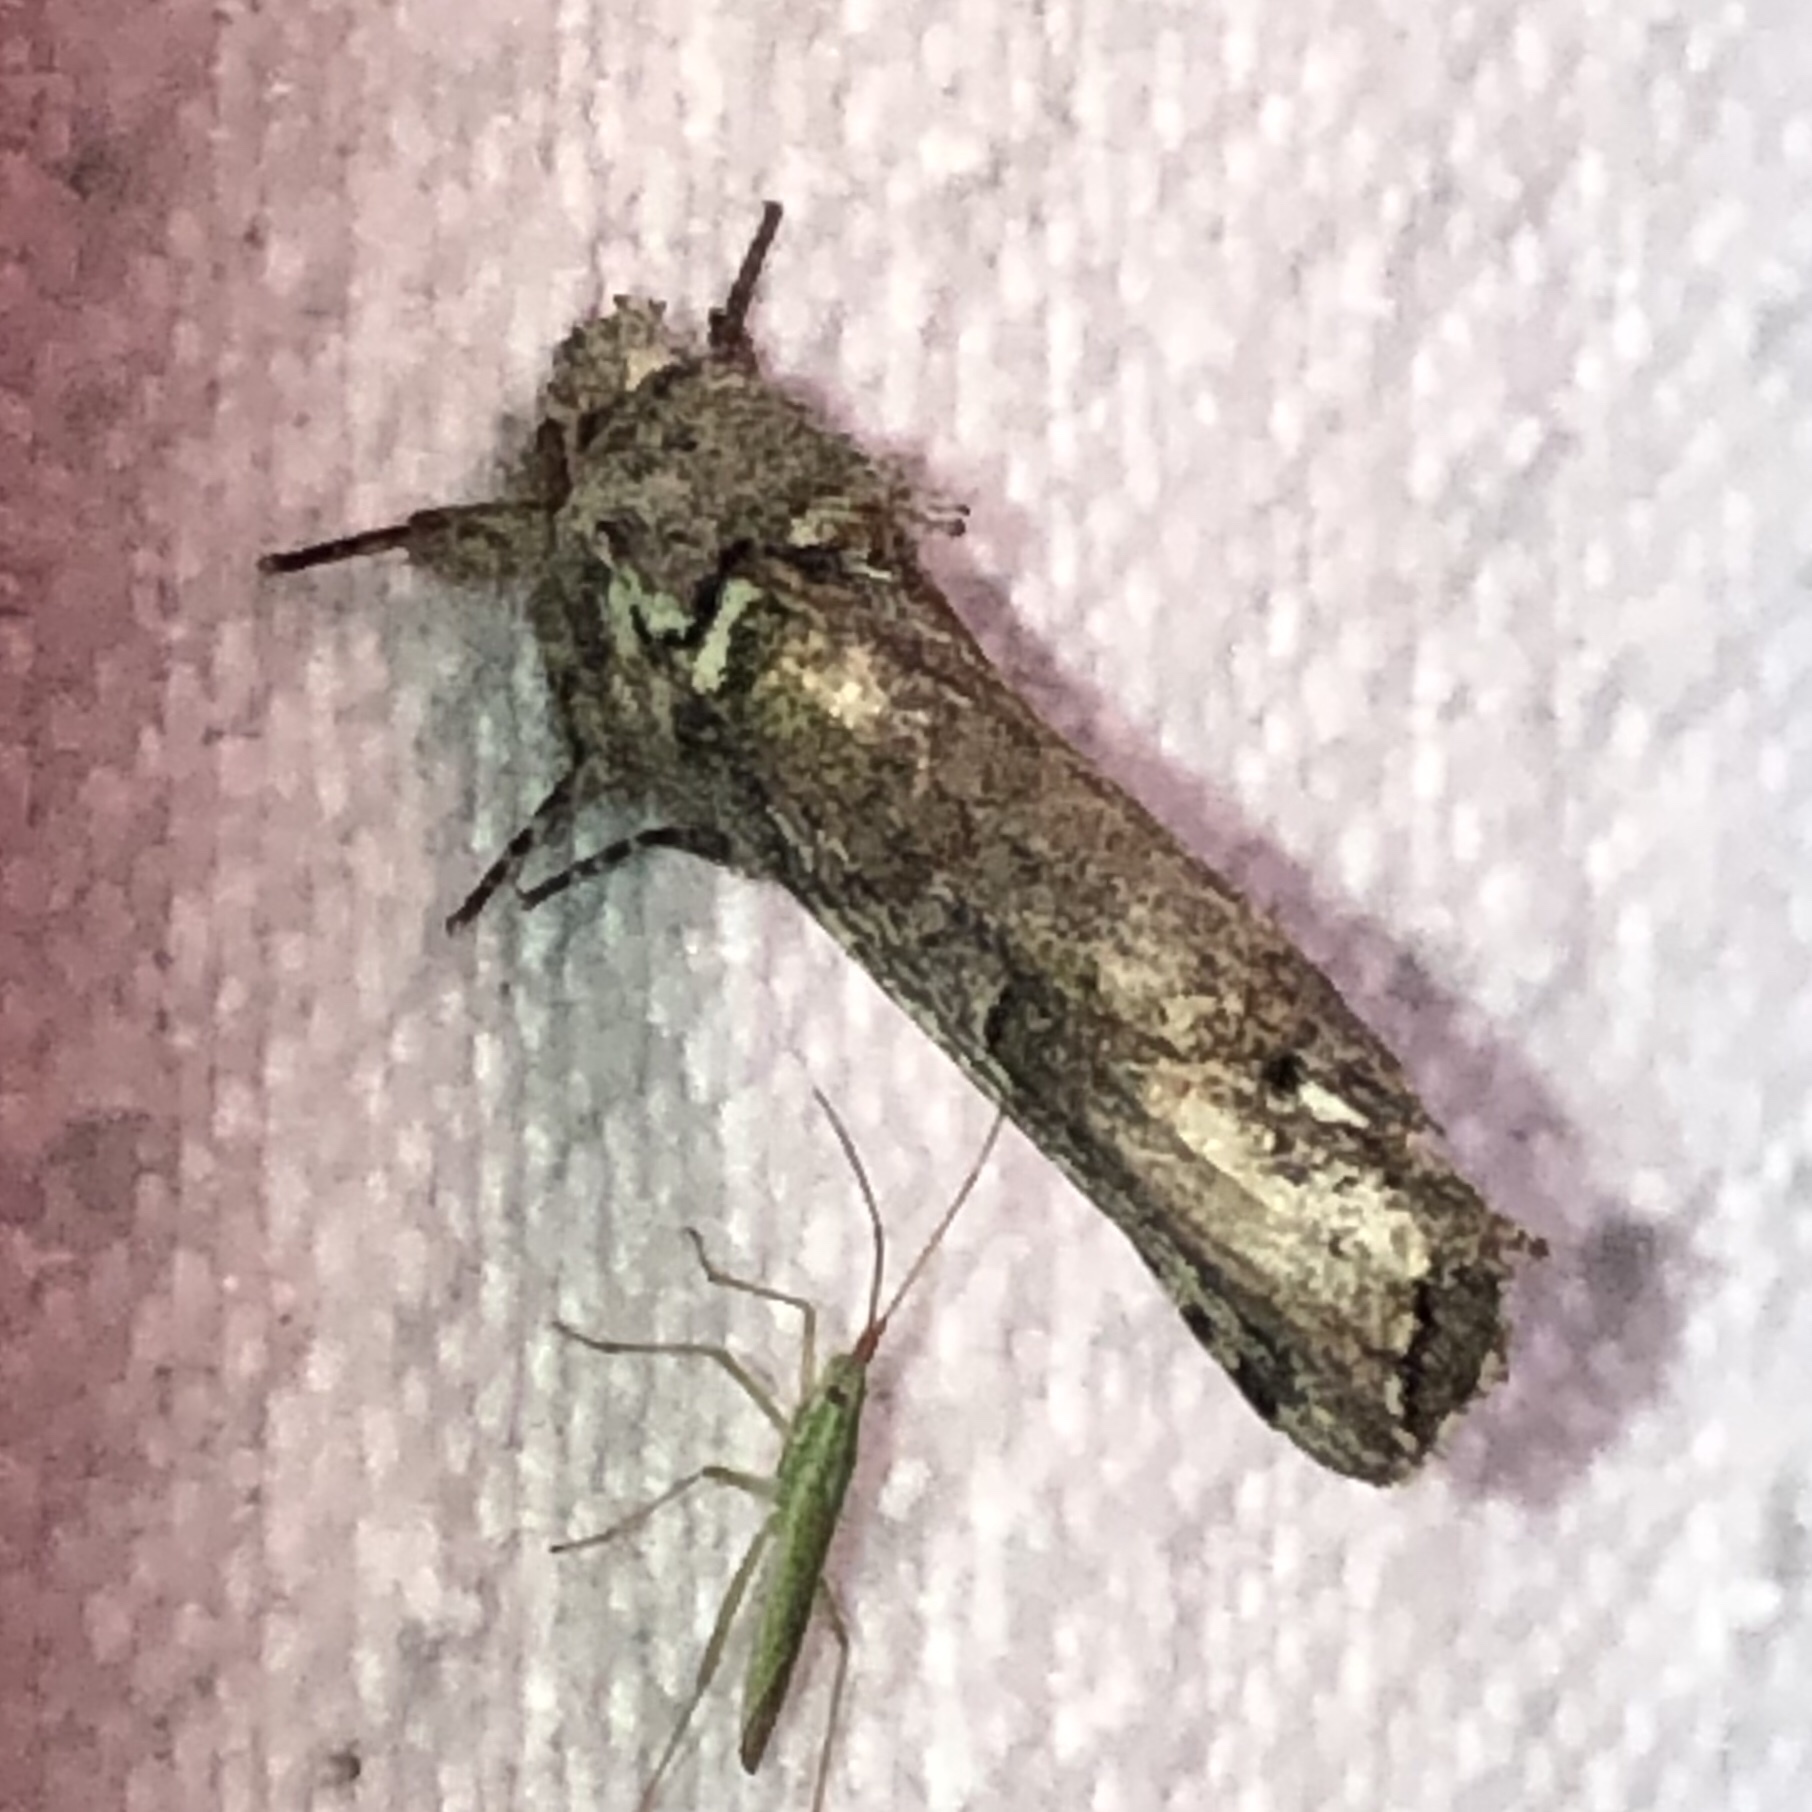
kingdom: Animalia
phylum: Arthropoda
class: Insecta
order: Lepidoptera
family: Notodontidae
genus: Schizura
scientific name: Schizura
